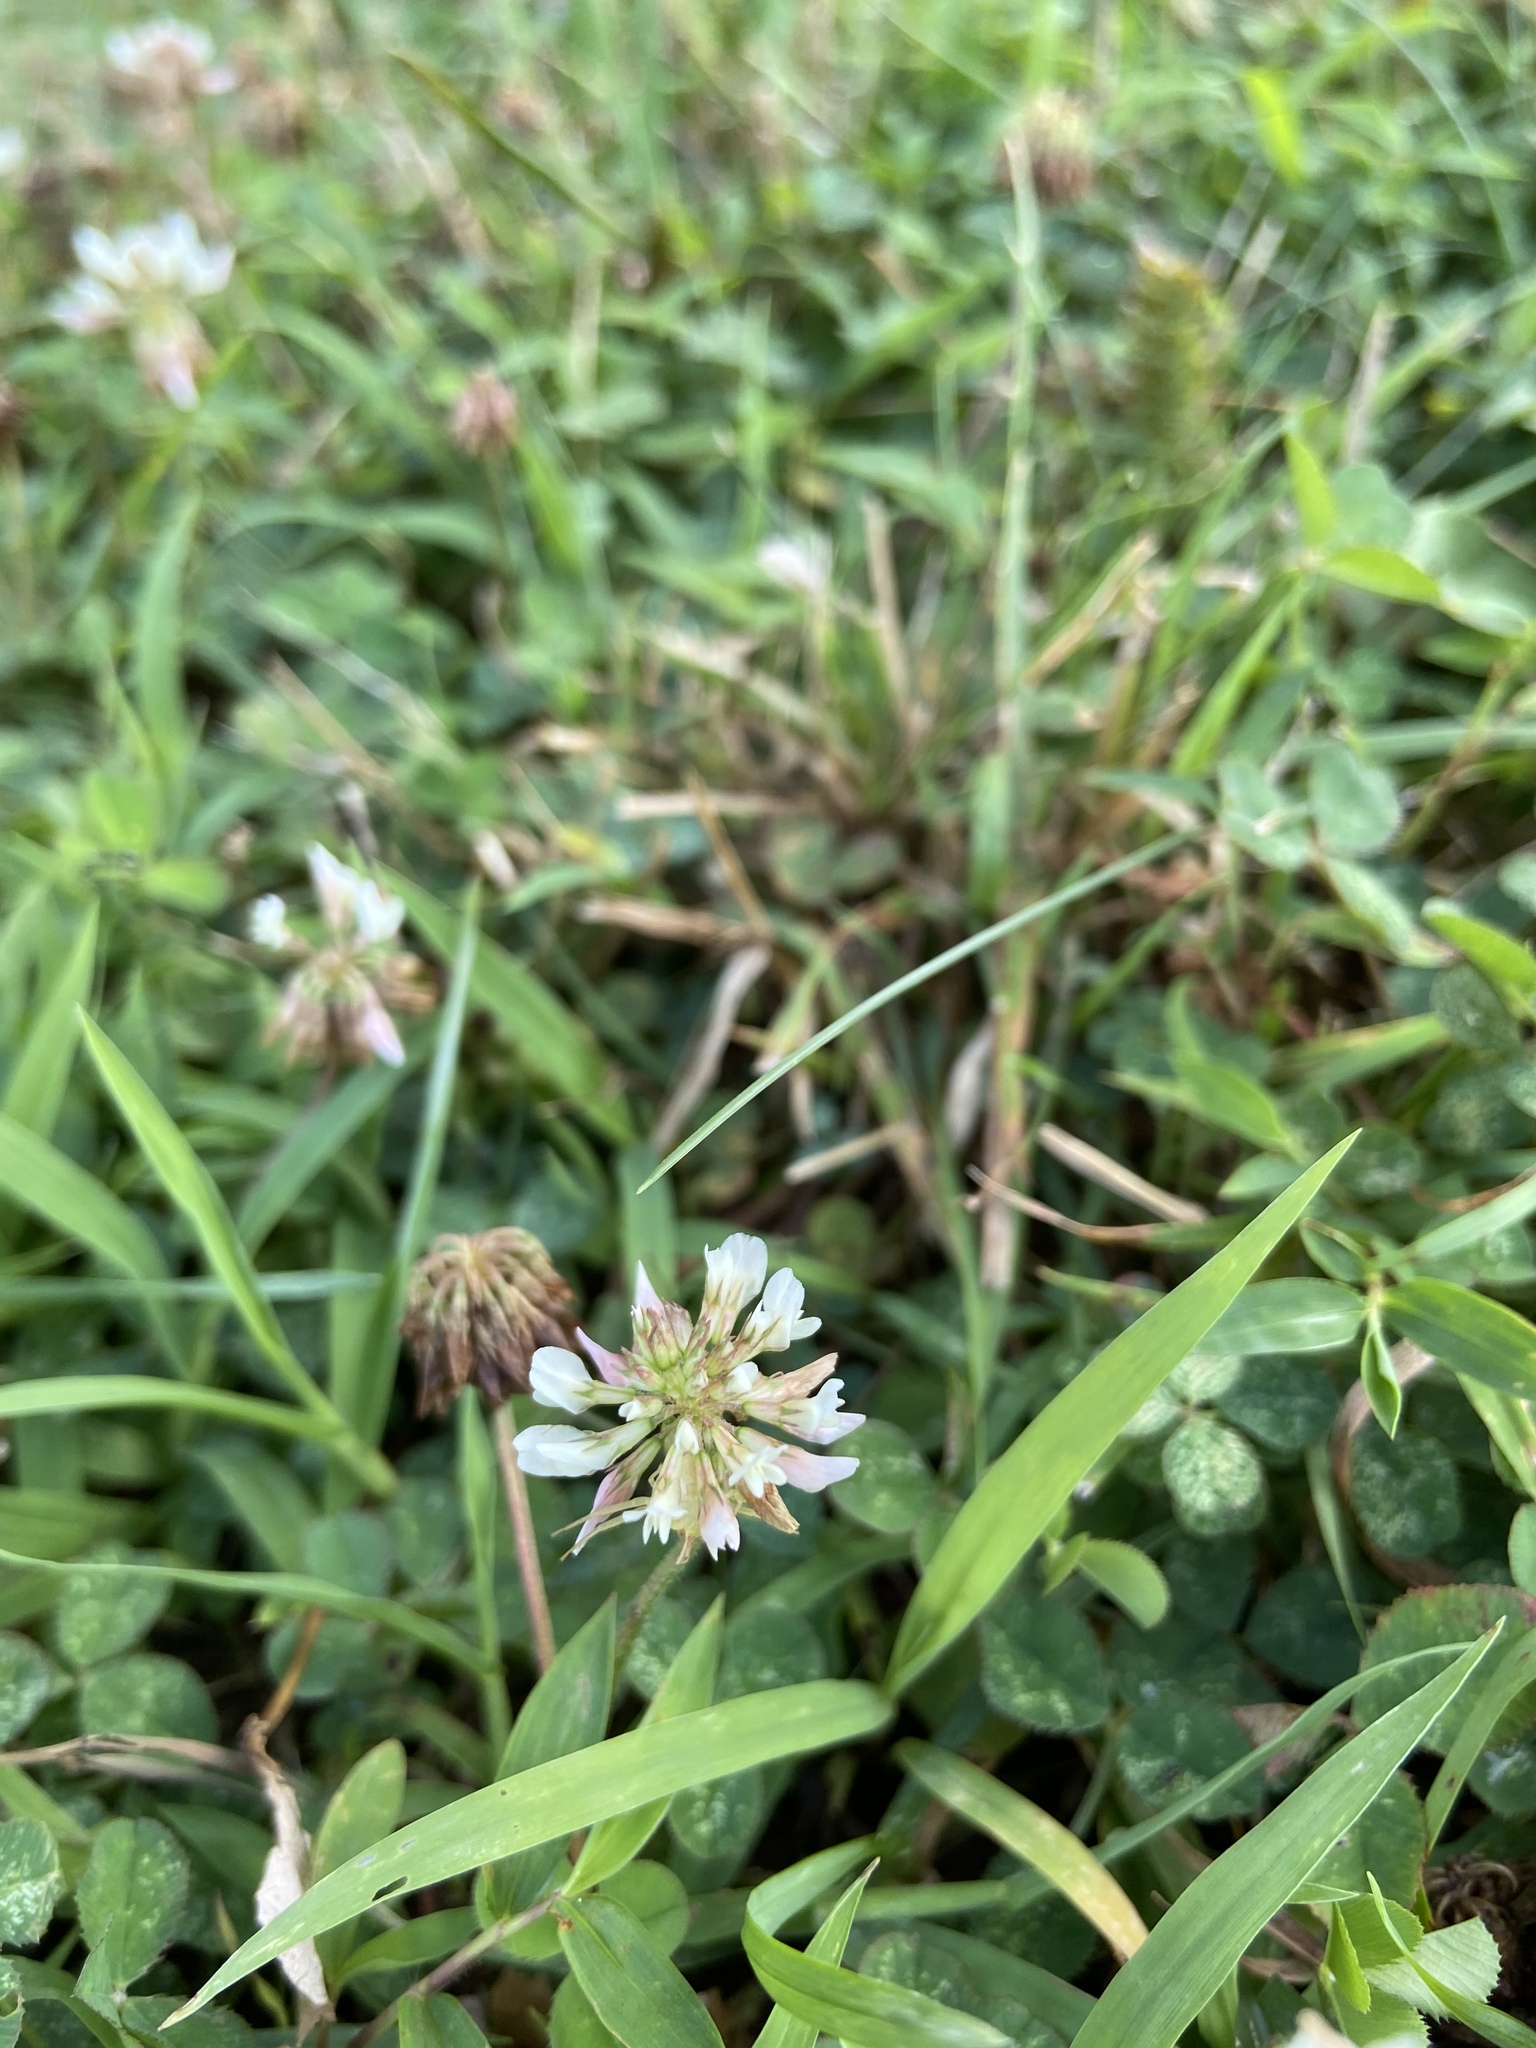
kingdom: Plantae
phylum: Tracheophyta
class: Magnoliopsida
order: Fabales
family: Fabaceae
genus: Trifolium
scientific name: Trifolium repens
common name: White clover
